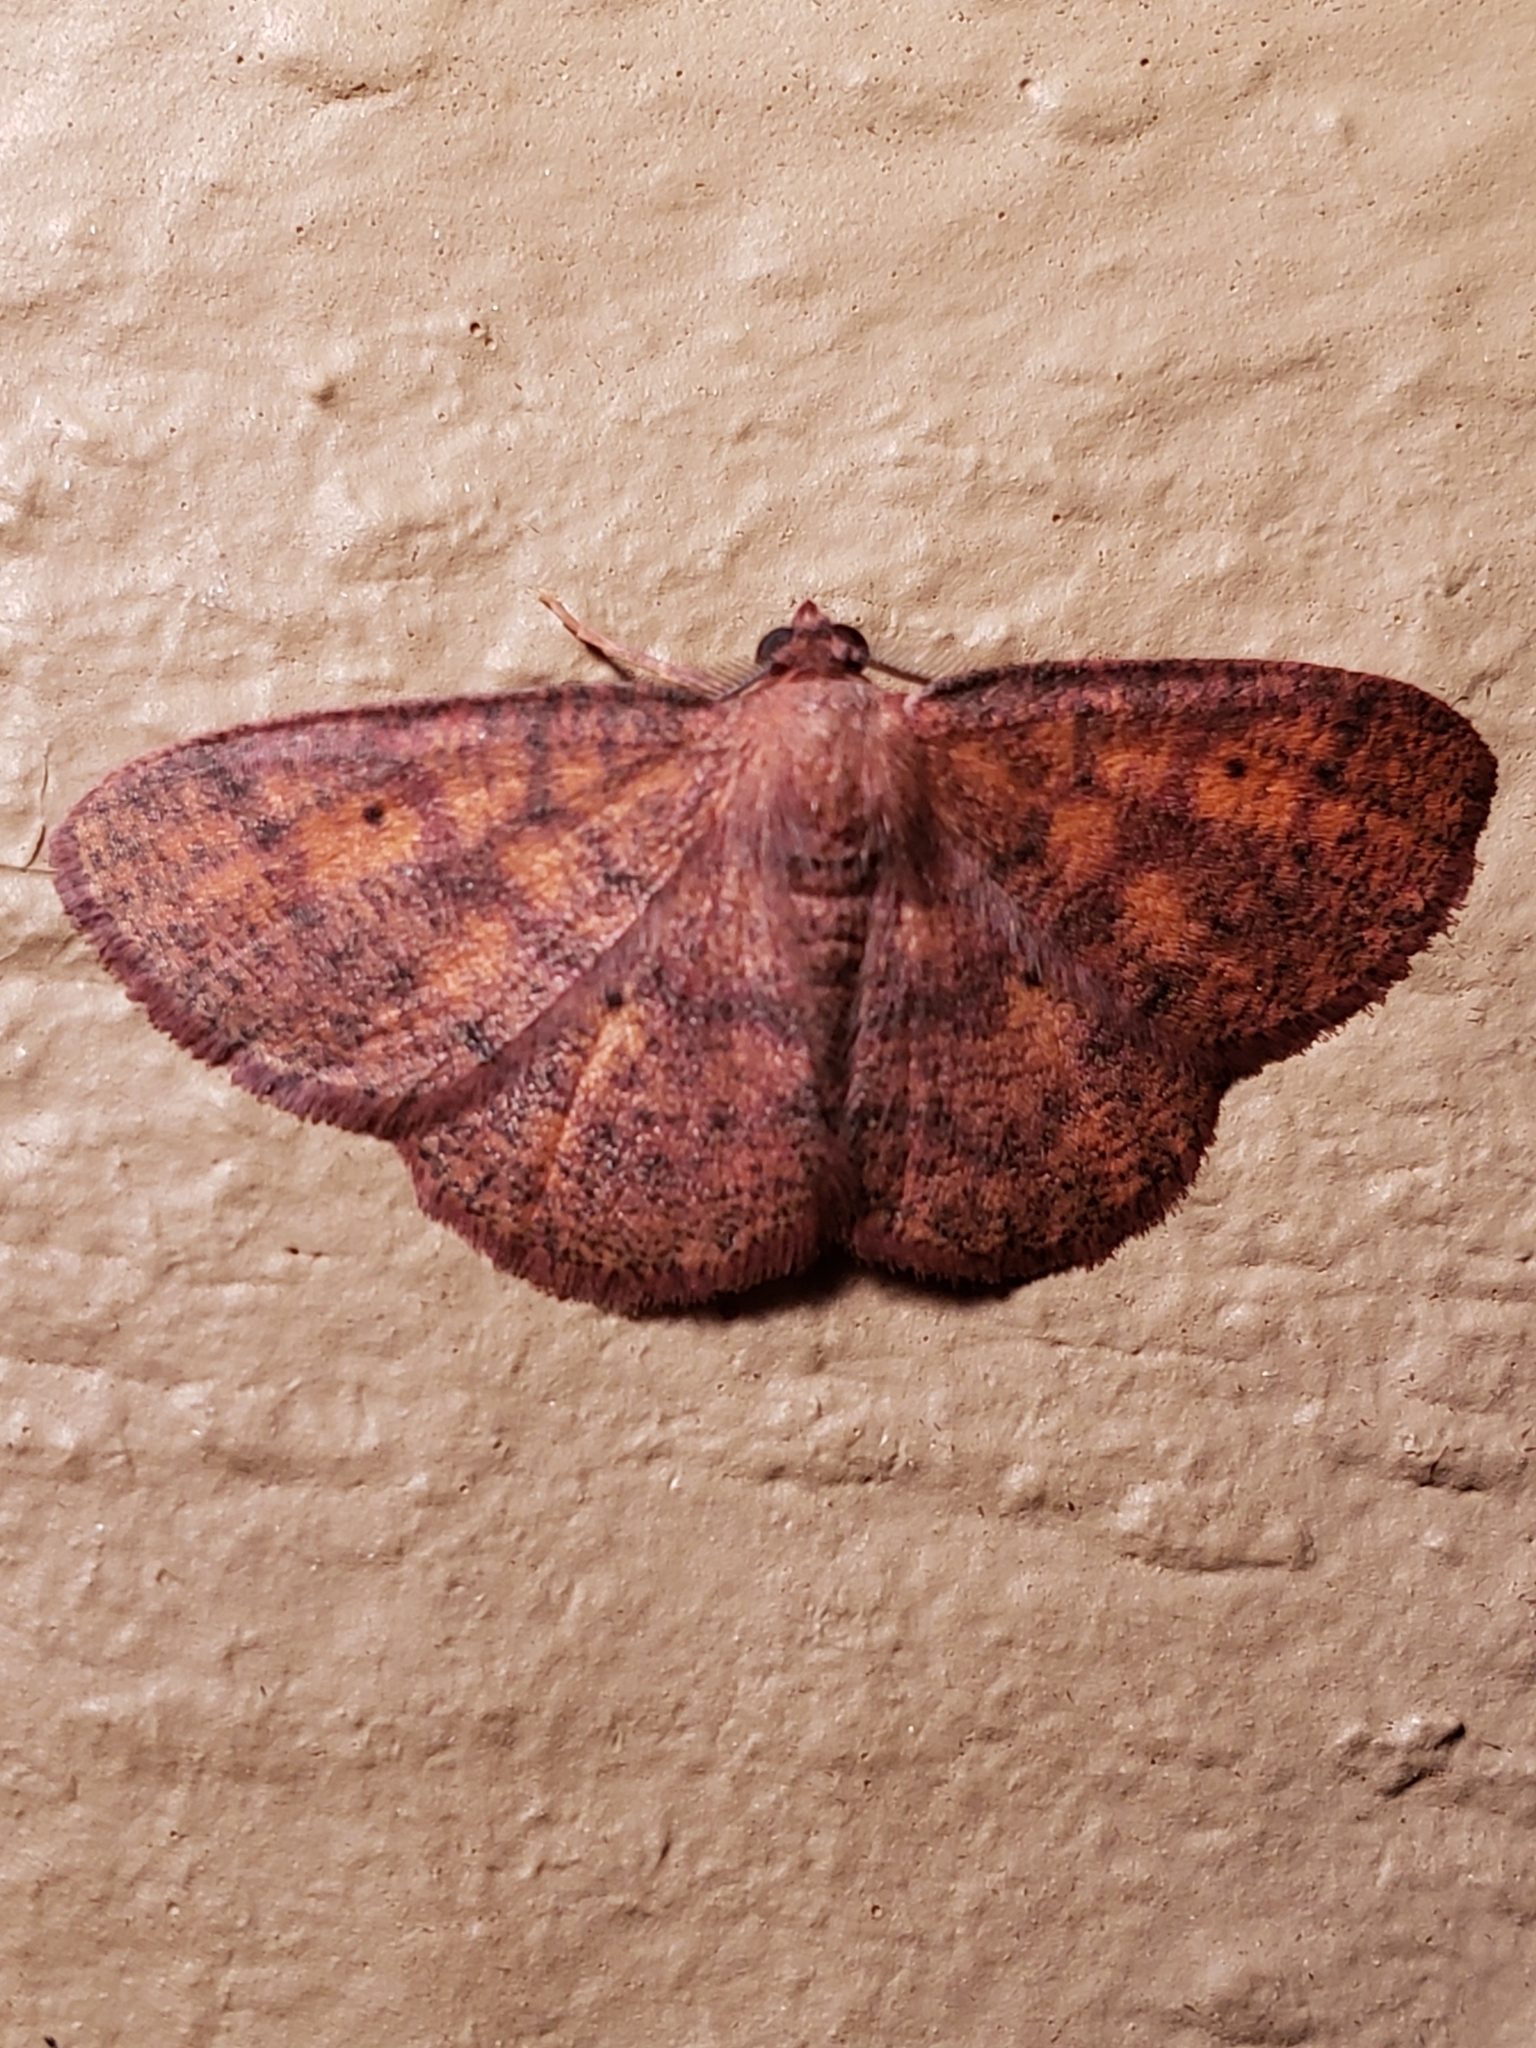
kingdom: Animalia
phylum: Arthropoda
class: Insecta
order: Lepidoptera
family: Geometridae
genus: Ilexia
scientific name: Ilexia intractata
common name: Black-dotted ruddy moth
